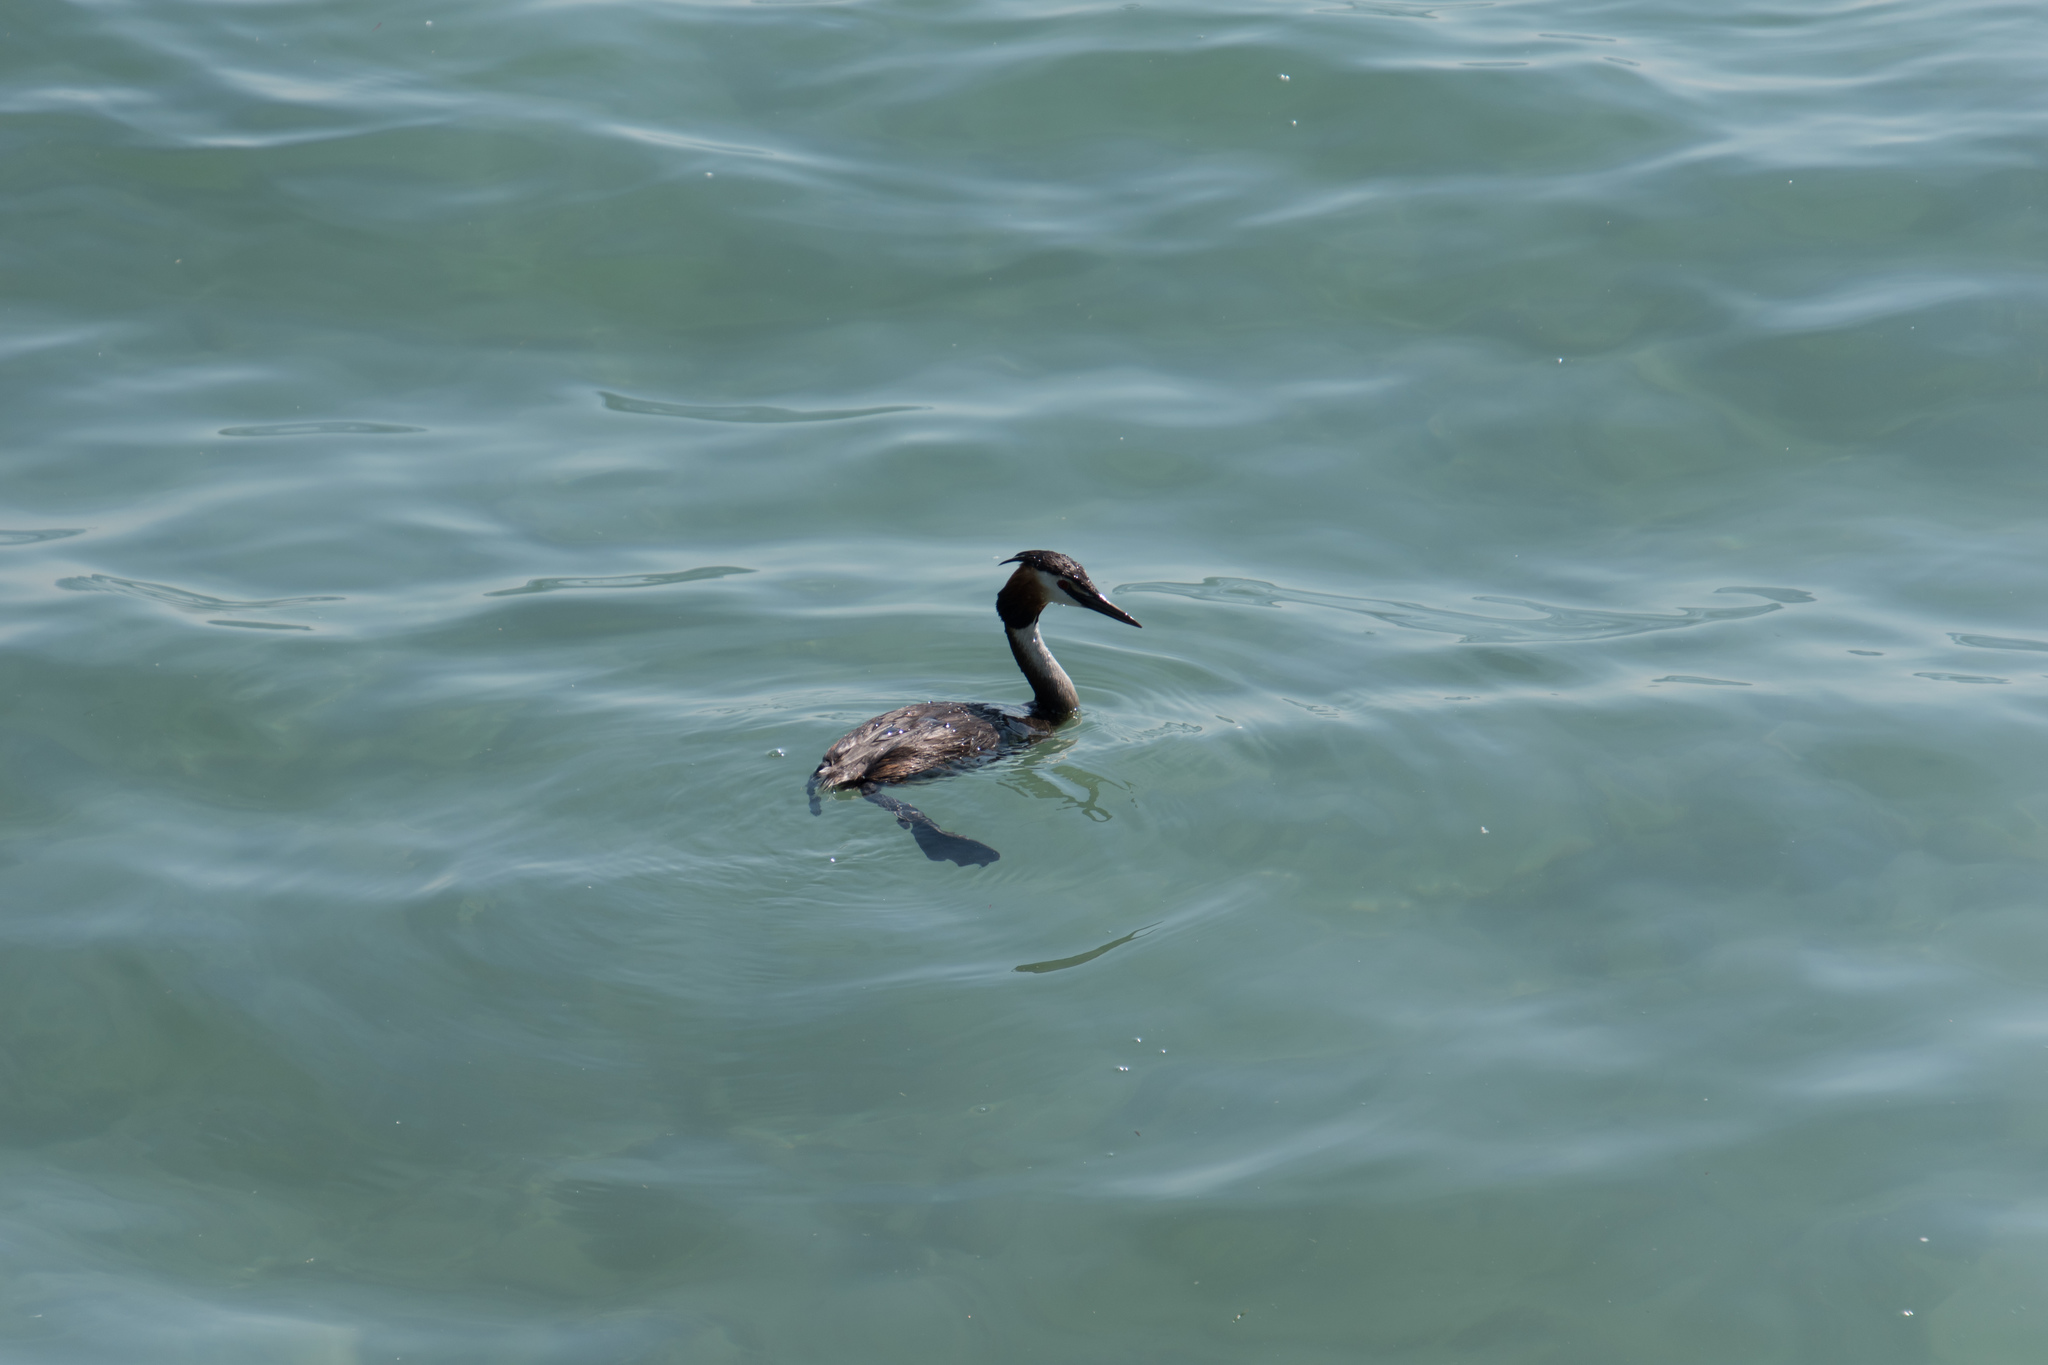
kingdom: Animalia
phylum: Chordata
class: Aves
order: Podicipediformes
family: Podicipedidae
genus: Podiceps
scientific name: Podiceps cristatus
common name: Great crested grebe
